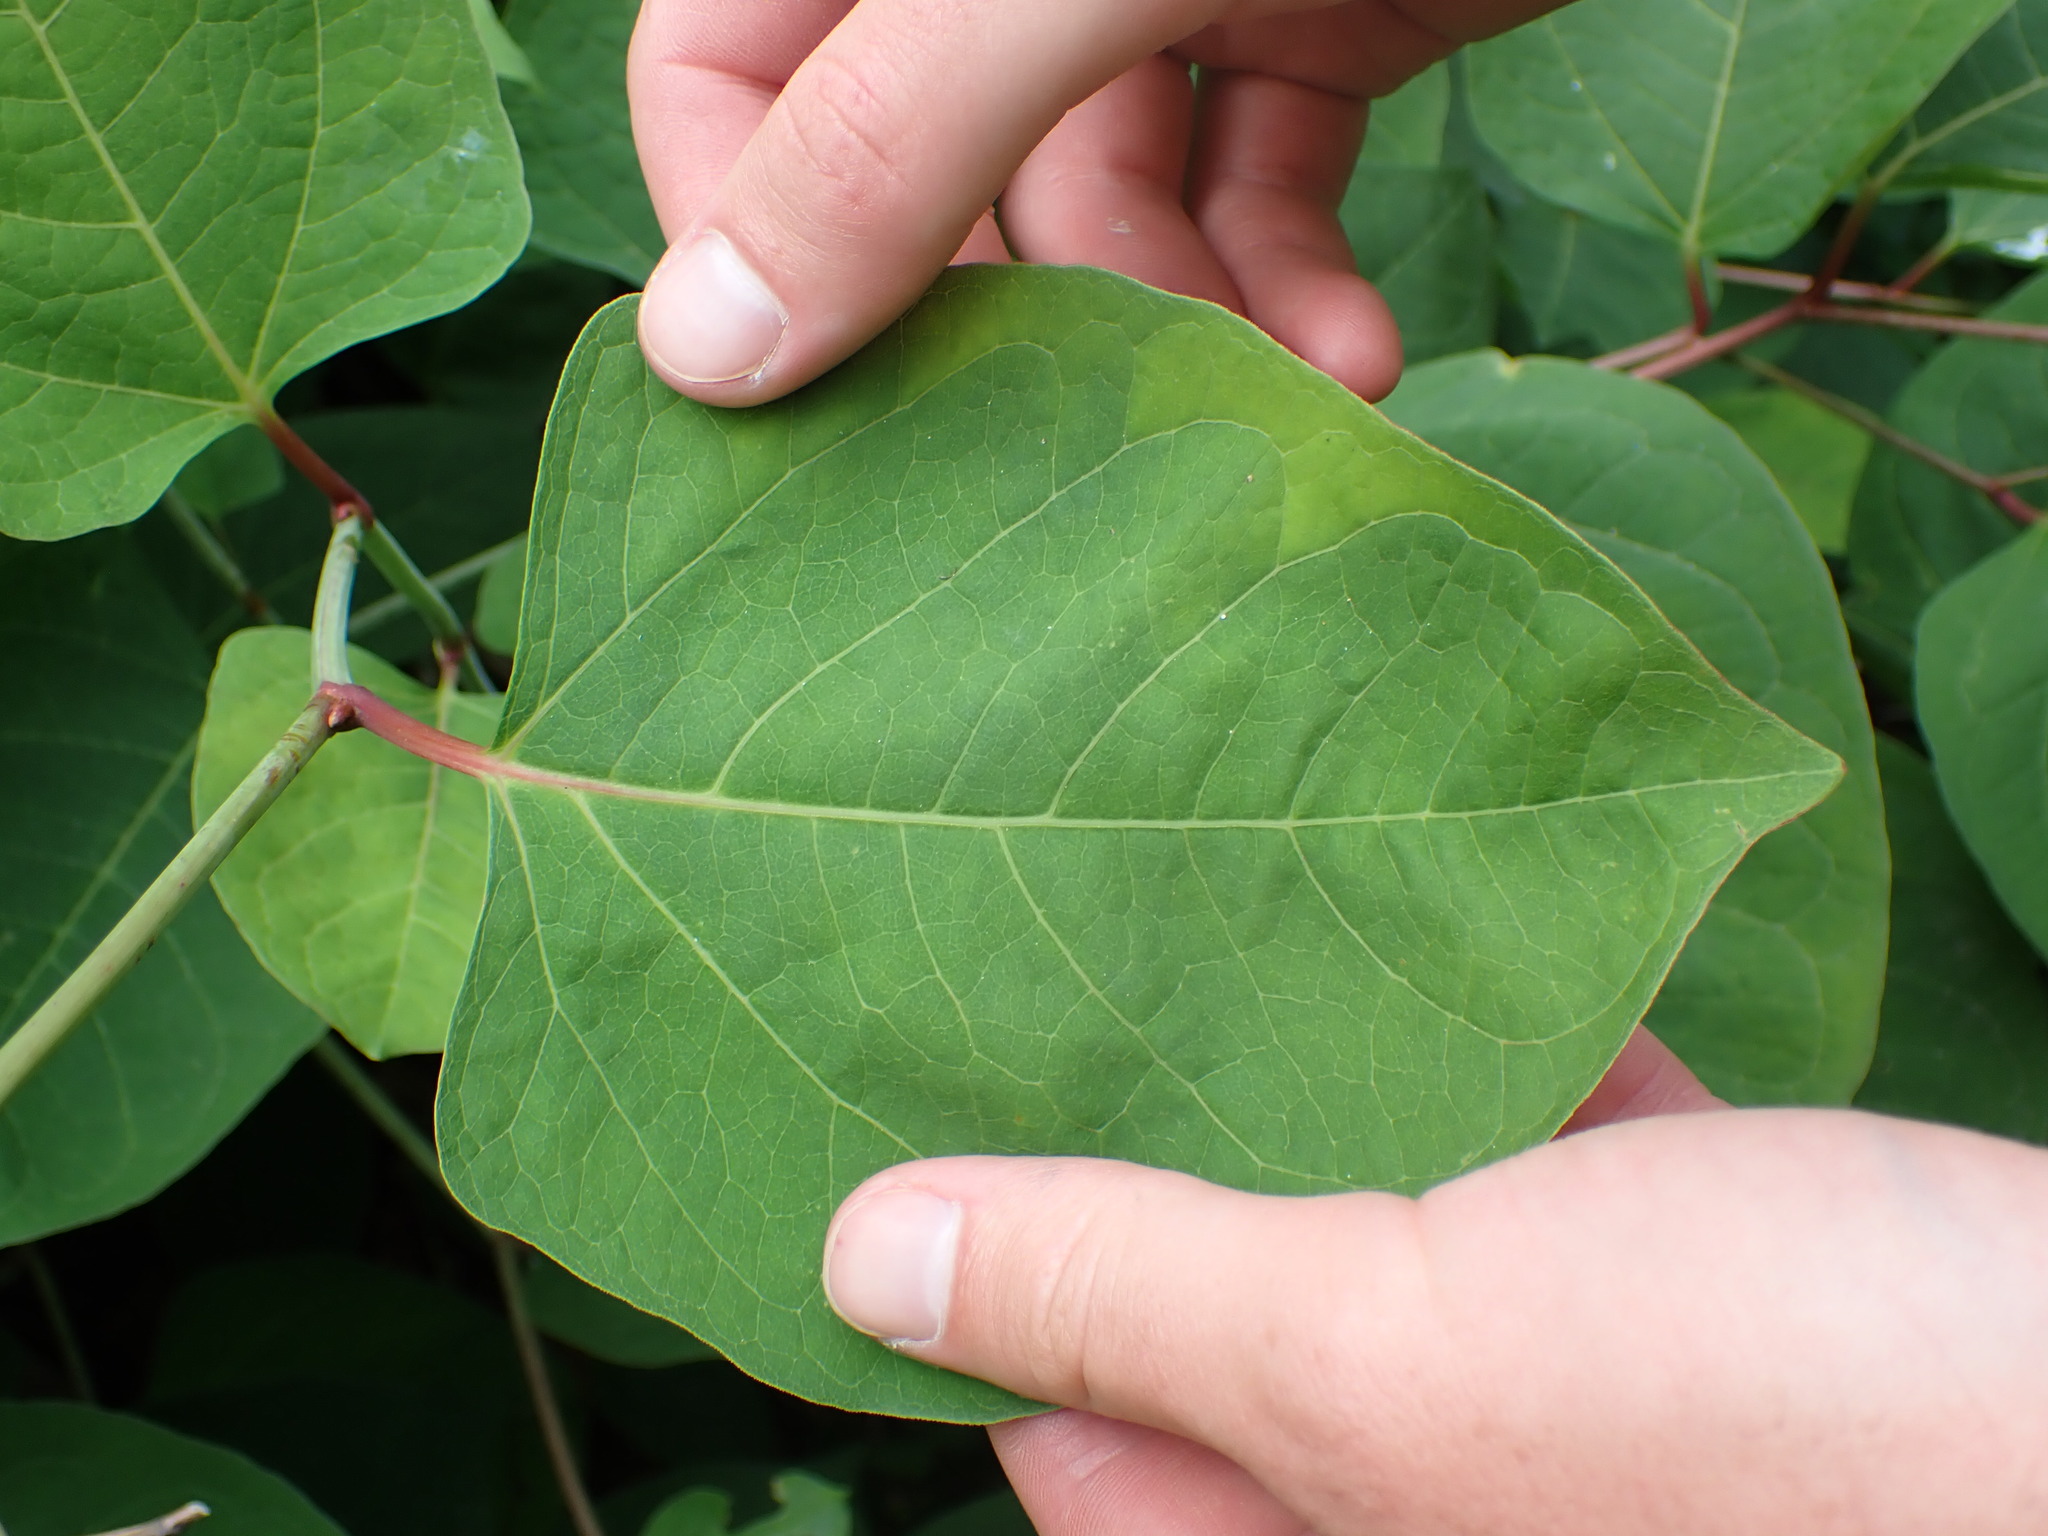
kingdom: Plantae
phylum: Tracheophyta
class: Magnoliopsida
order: Caryophyllales
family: Polygonaceae
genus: Reynoutria
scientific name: Reynoutria japonica
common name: Japanese knotweed
